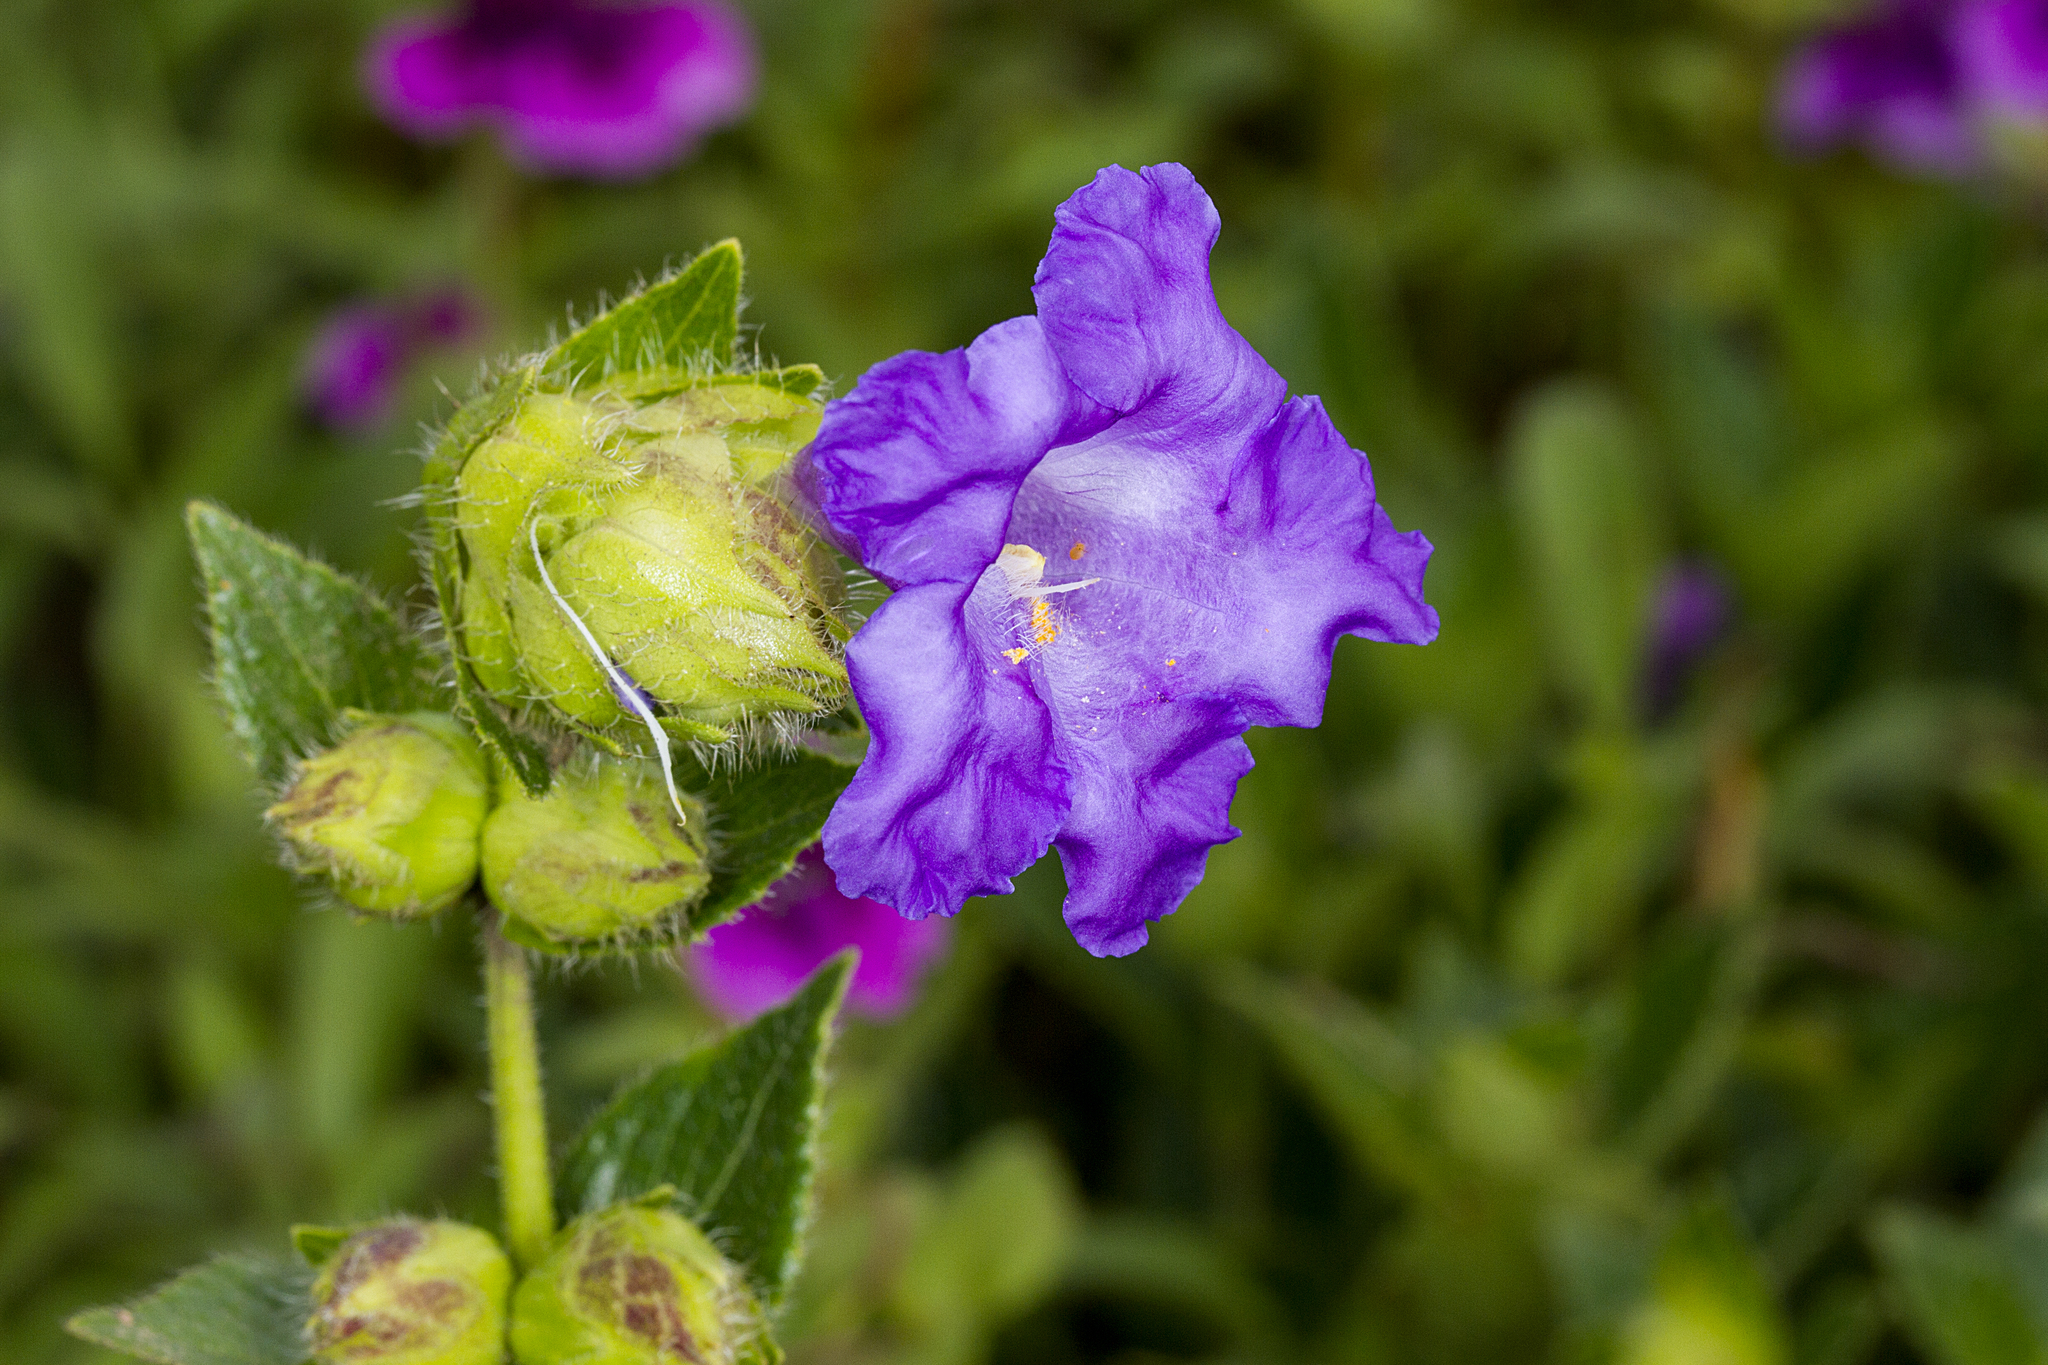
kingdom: Plantae
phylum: Tracheophyta
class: Magnoliopsida
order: Lamiales
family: Acanthaceae
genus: Strobilanthes
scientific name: Strobilanthes sessilis
